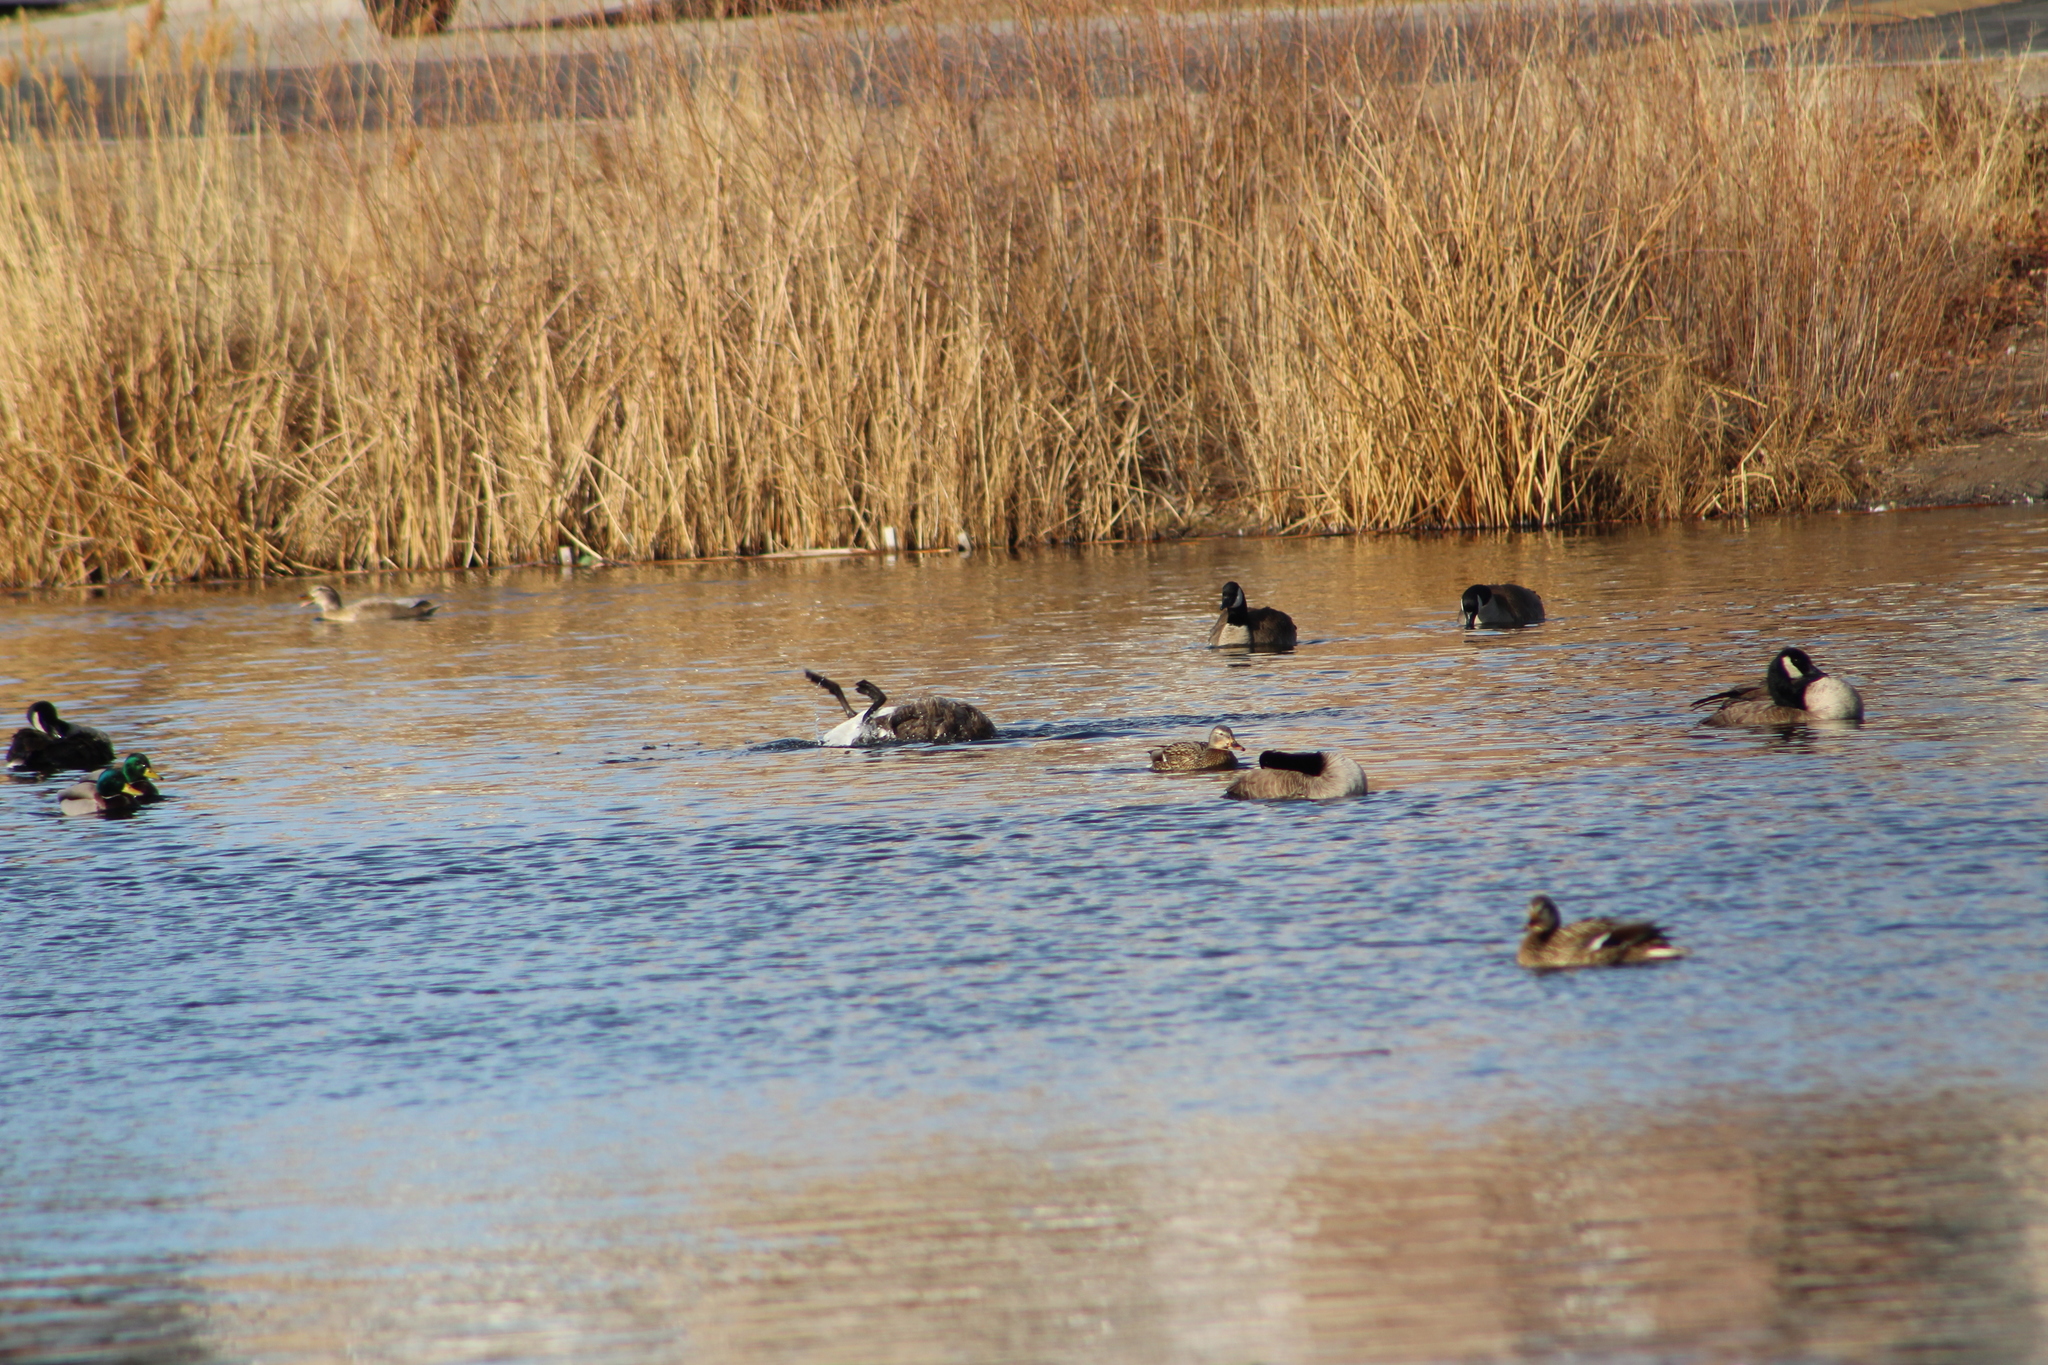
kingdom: Animalia
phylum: Chordata
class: Aves
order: Anseriformes
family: Anatidae
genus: Branta
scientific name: Branta canadensis
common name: Canada goose
